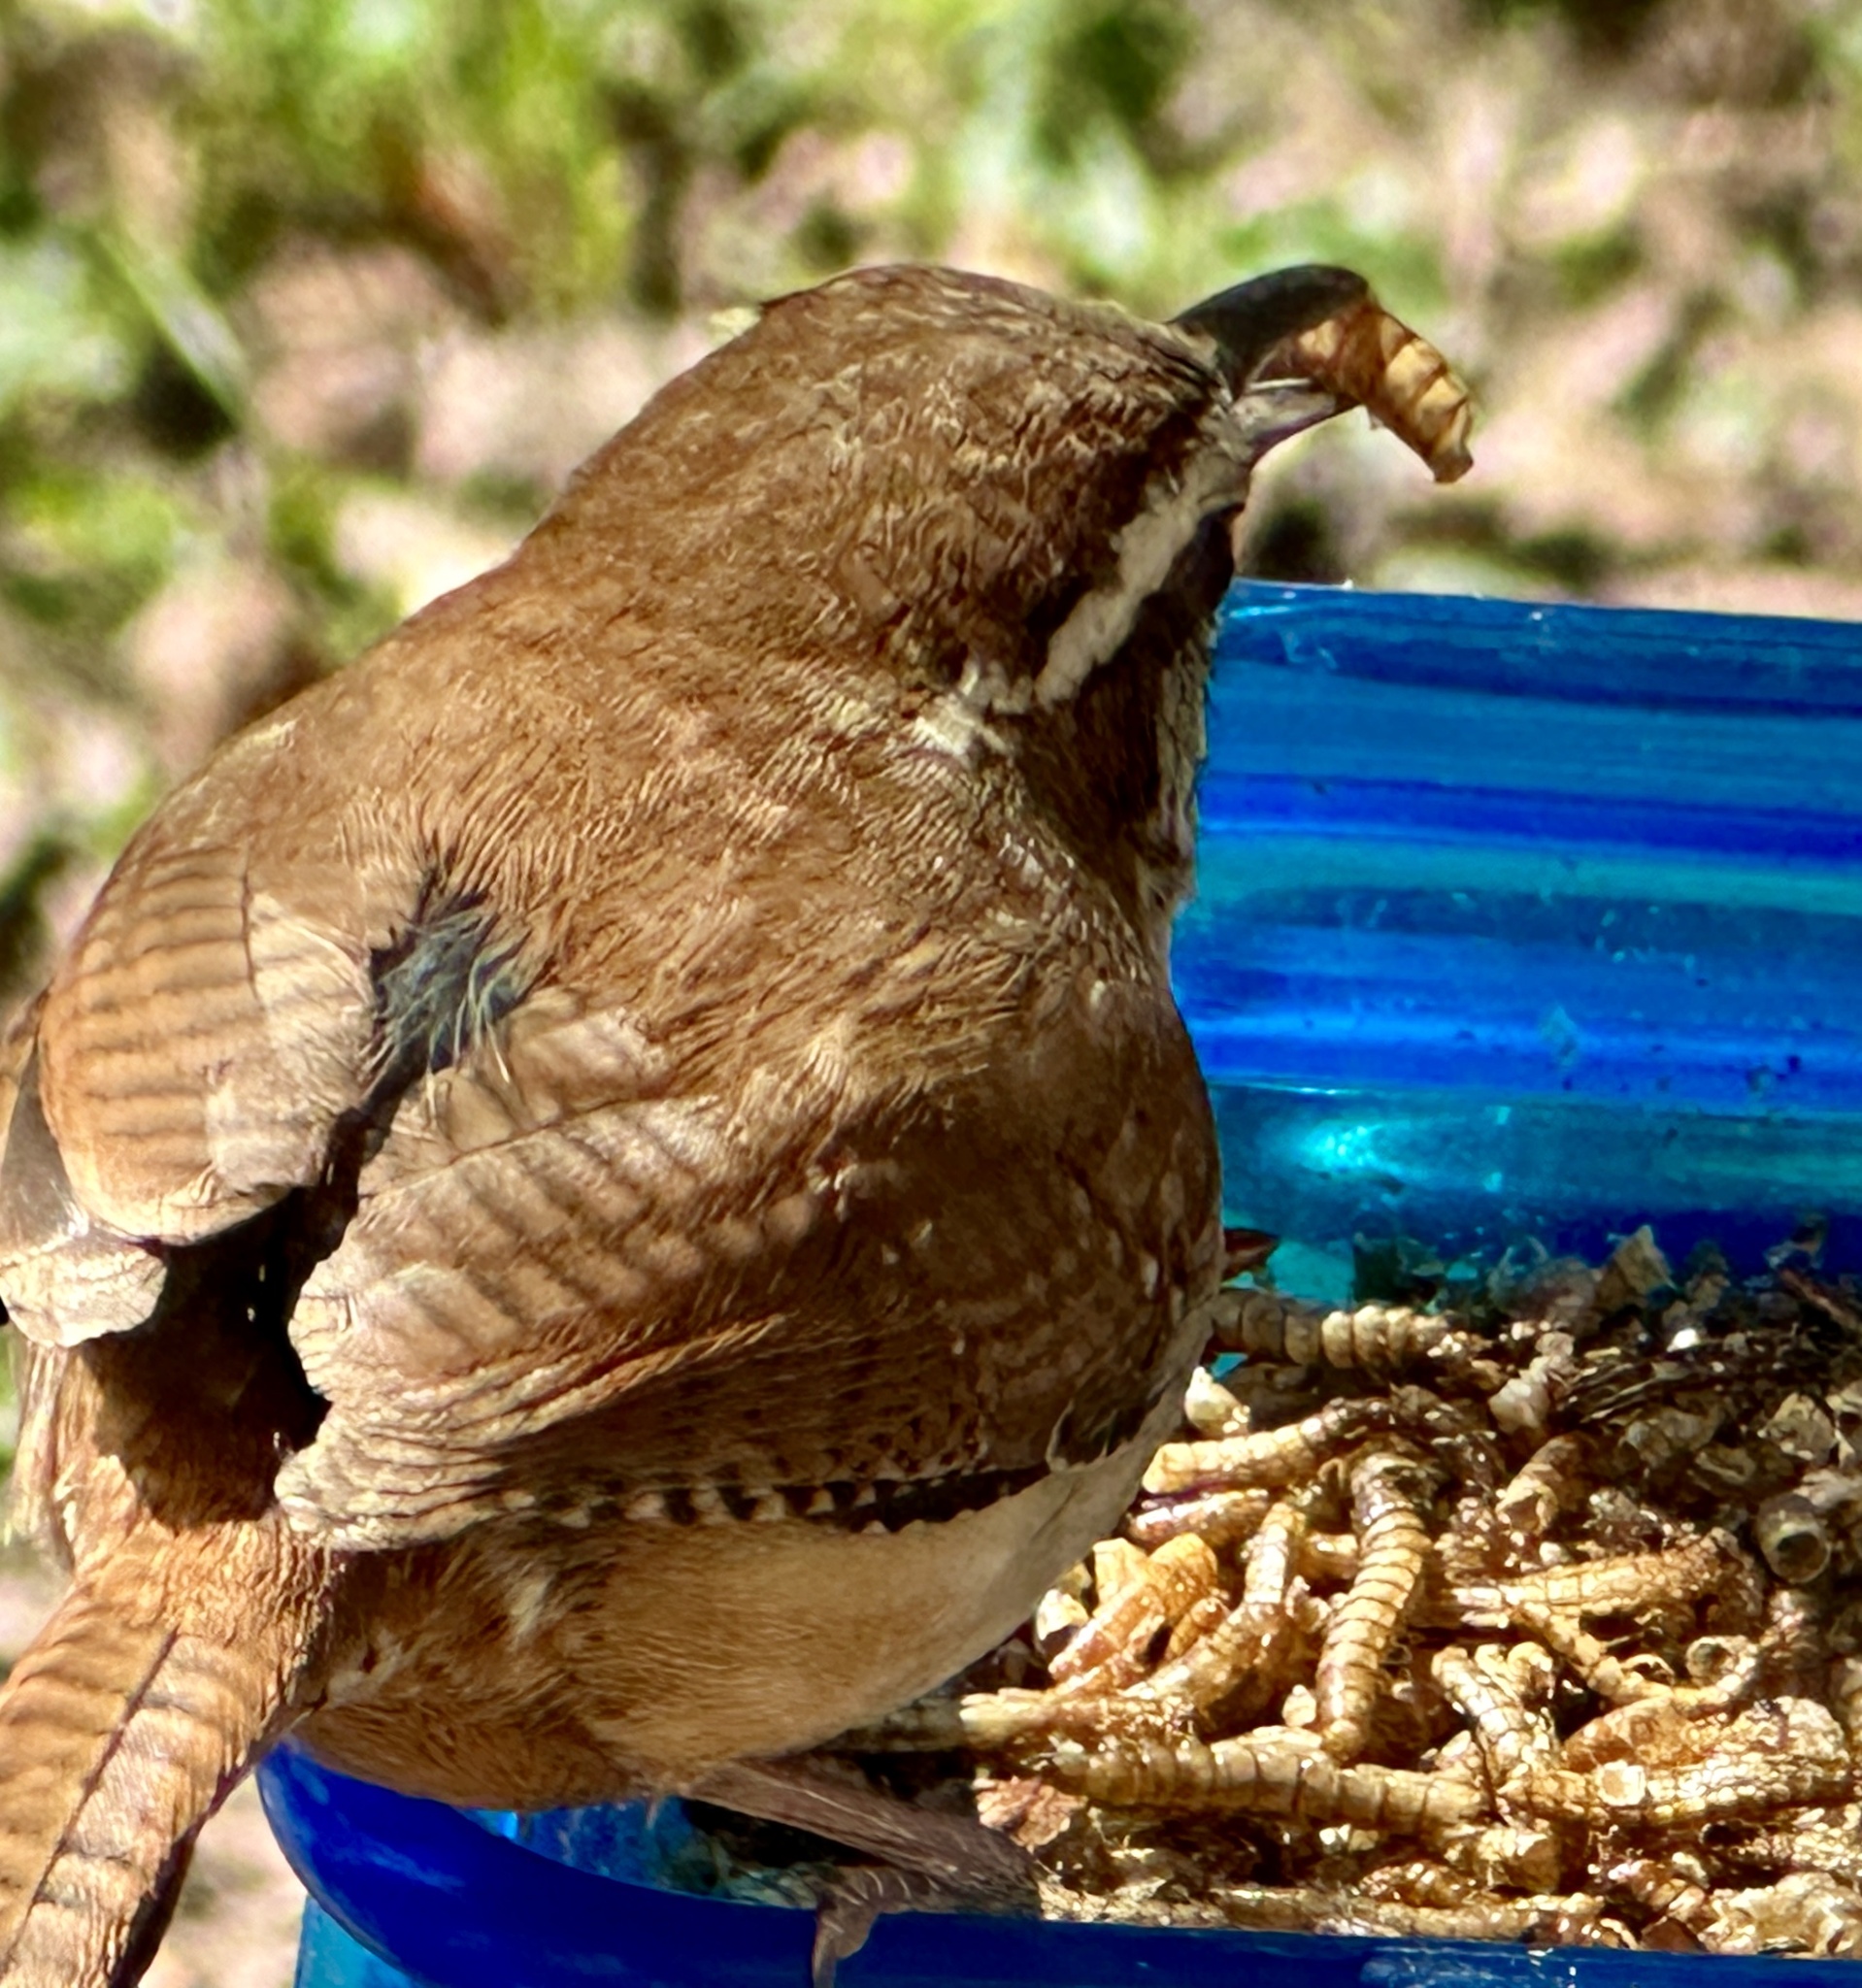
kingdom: Animalia
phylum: Chordata
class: Aves
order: Passeriformes
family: Troglodytidae
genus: Thryothorus
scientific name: Thryothorus ludovicianus
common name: Carolina wren
